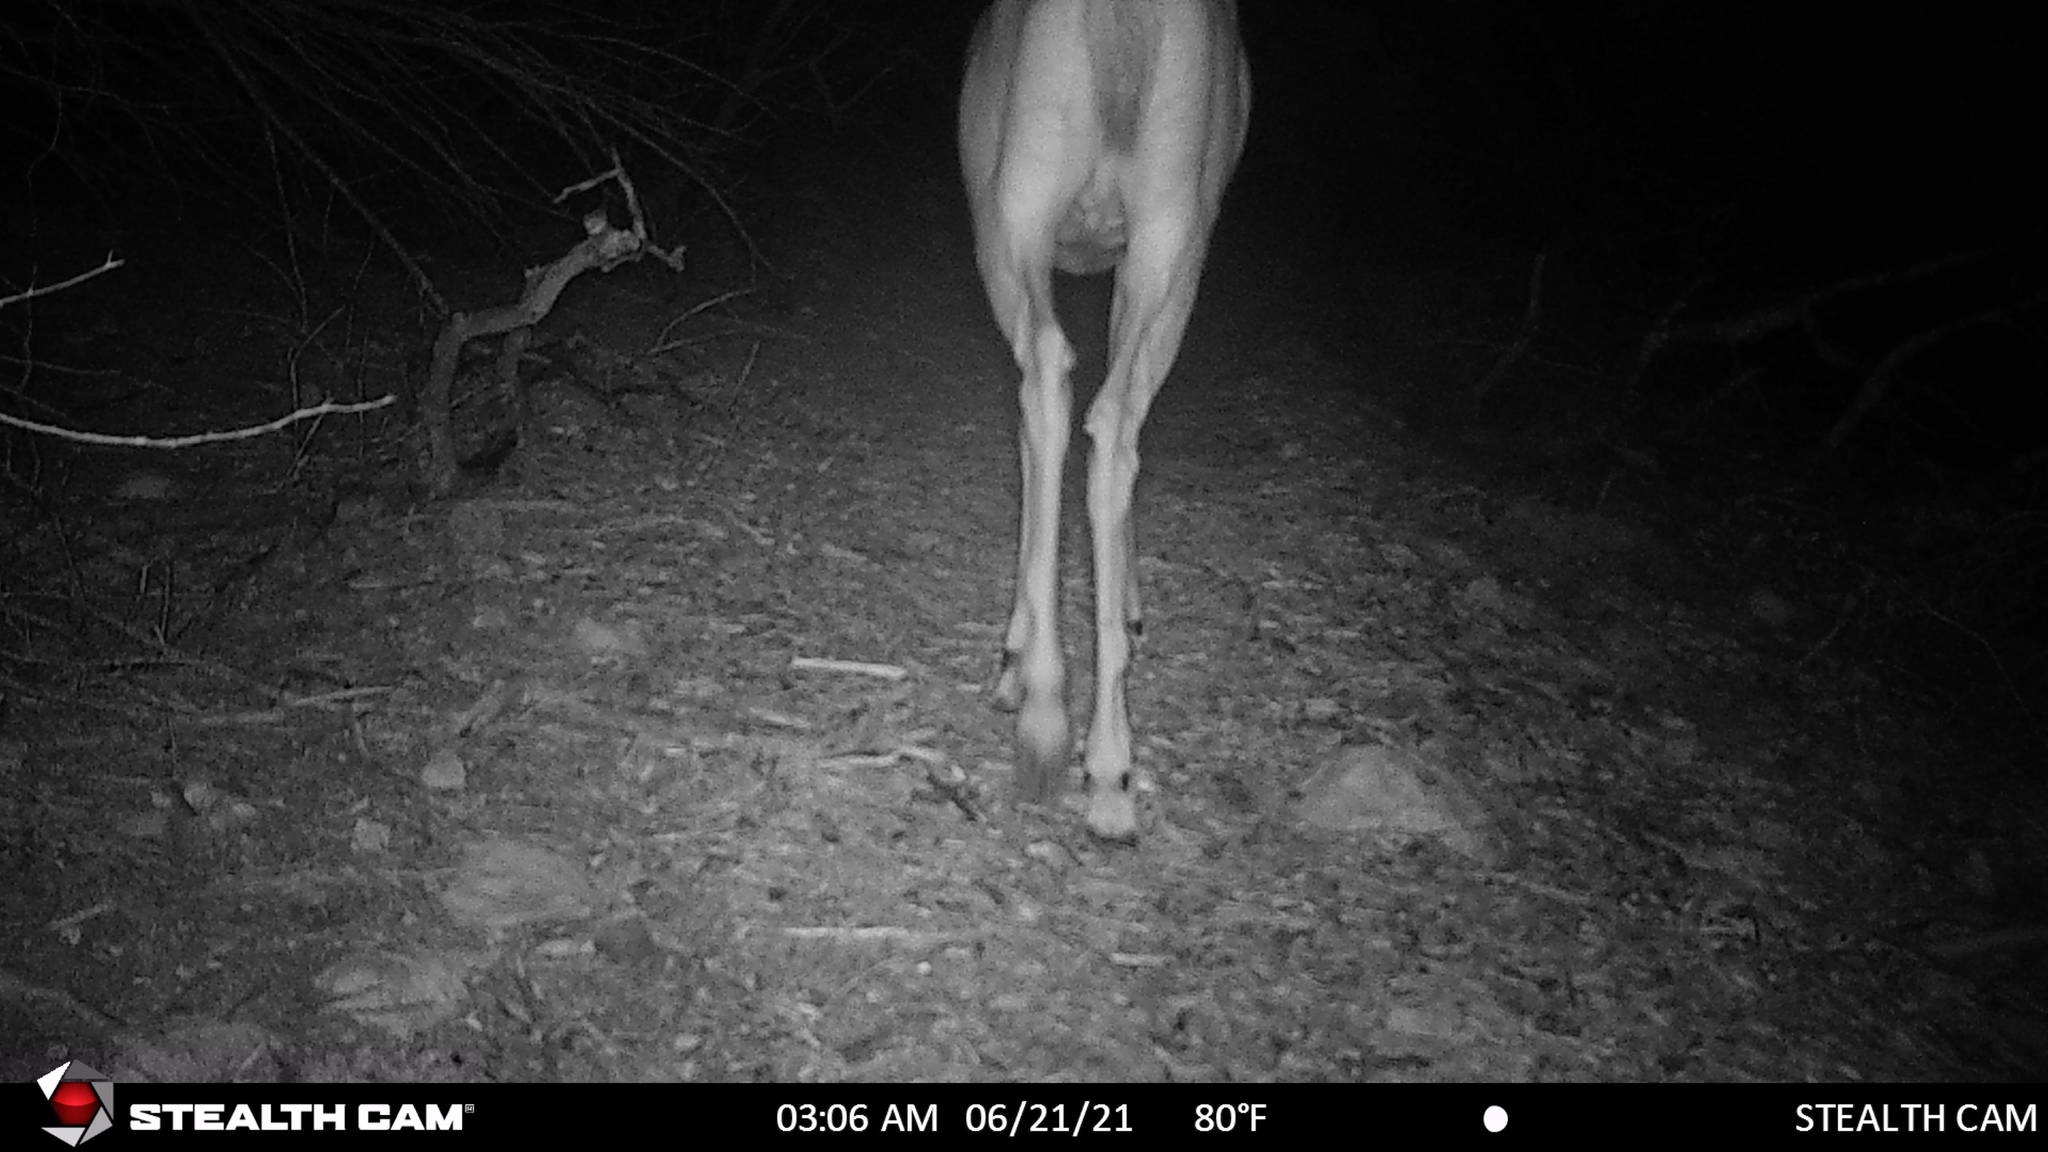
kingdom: Animalia
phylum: Chordata
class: Mammalia
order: Artiodactyla
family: Cervidae
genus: Odocoileus
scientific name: Odocoileus virginianus
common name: White-tailed deer
